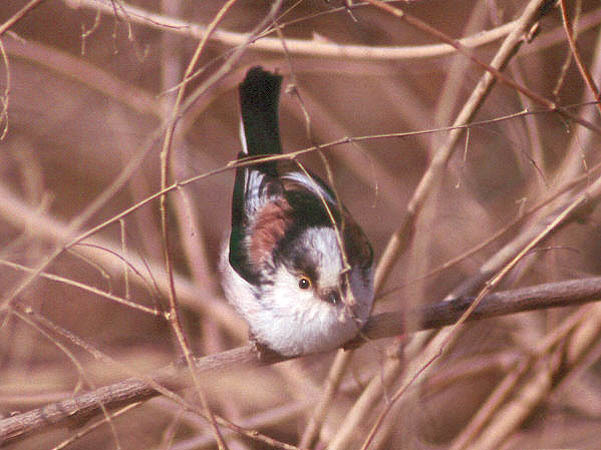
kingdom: Animalia
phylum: Chordata
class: Aves
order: Passeriformes
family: Aegithalidae
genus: Aegithalos
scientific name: Aegithalos caudatus
